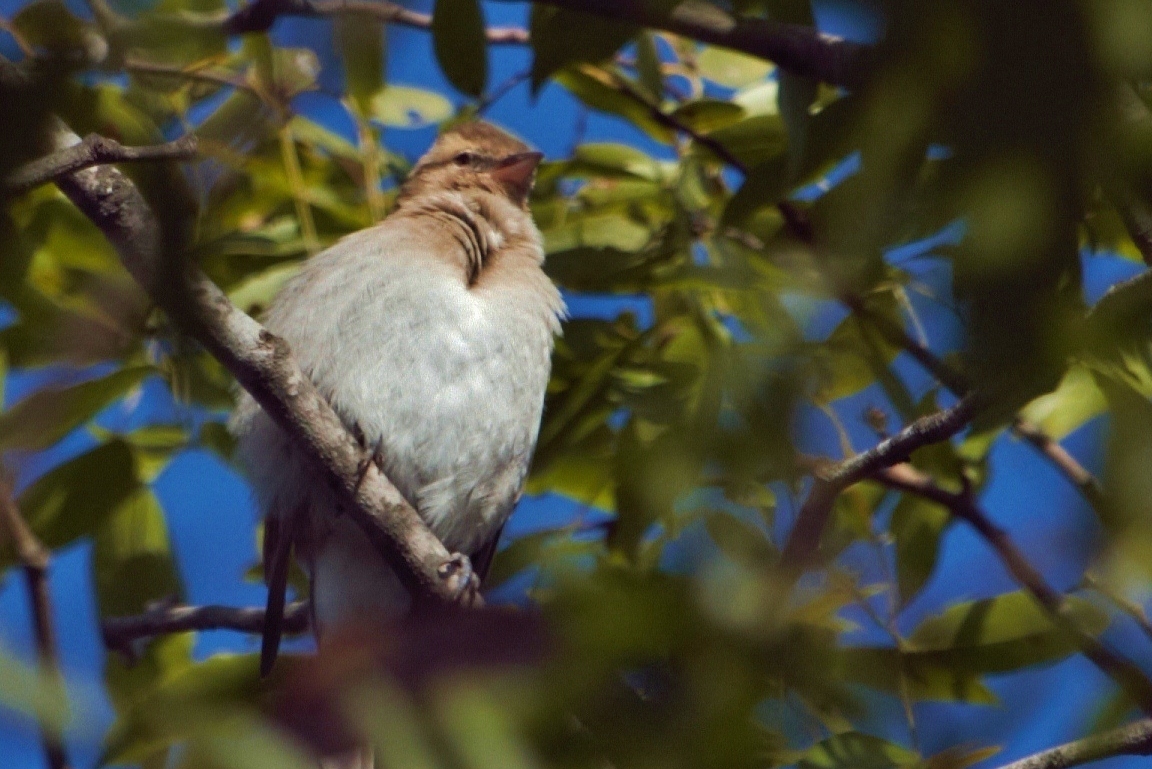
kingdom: Animalia
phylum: Chordata
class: Aves
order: Passeriformes
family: Passeridae
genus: Gymnoris
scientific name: Gymnoris superciliaris
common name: Yellow-throated petronia
